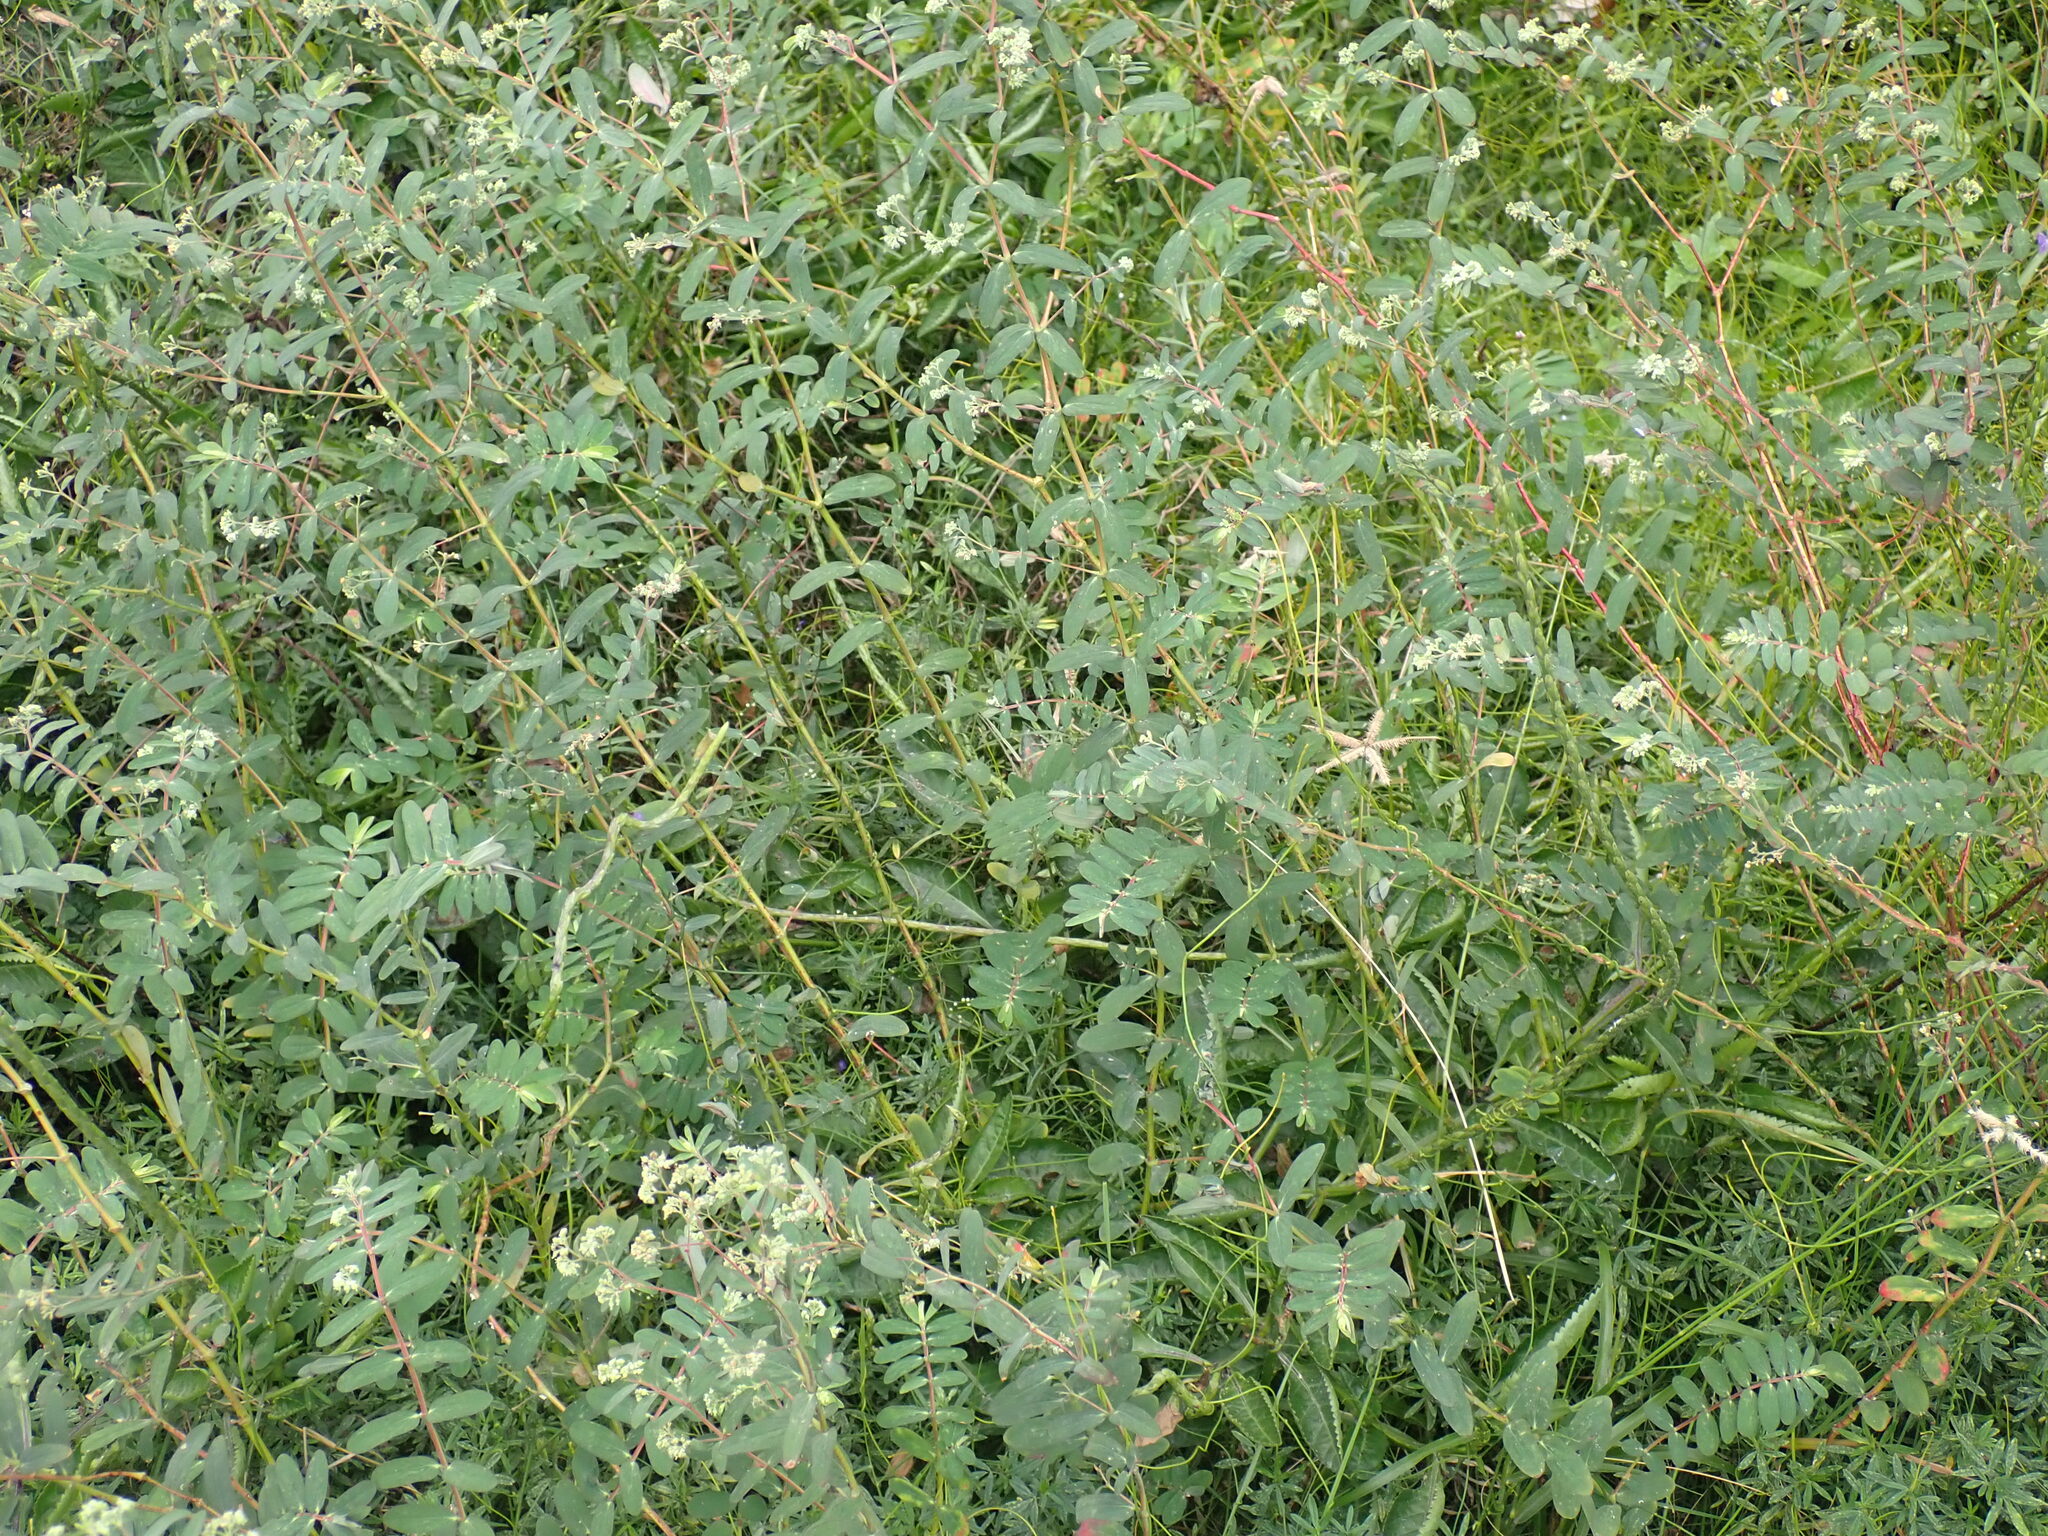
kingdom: Plantae
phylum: Tracheophyta
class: Magnoliopsida
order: Malpighiales
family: Euphorbiaceae
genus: Euphorbia
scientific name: Euphorbia lasiocarpa
